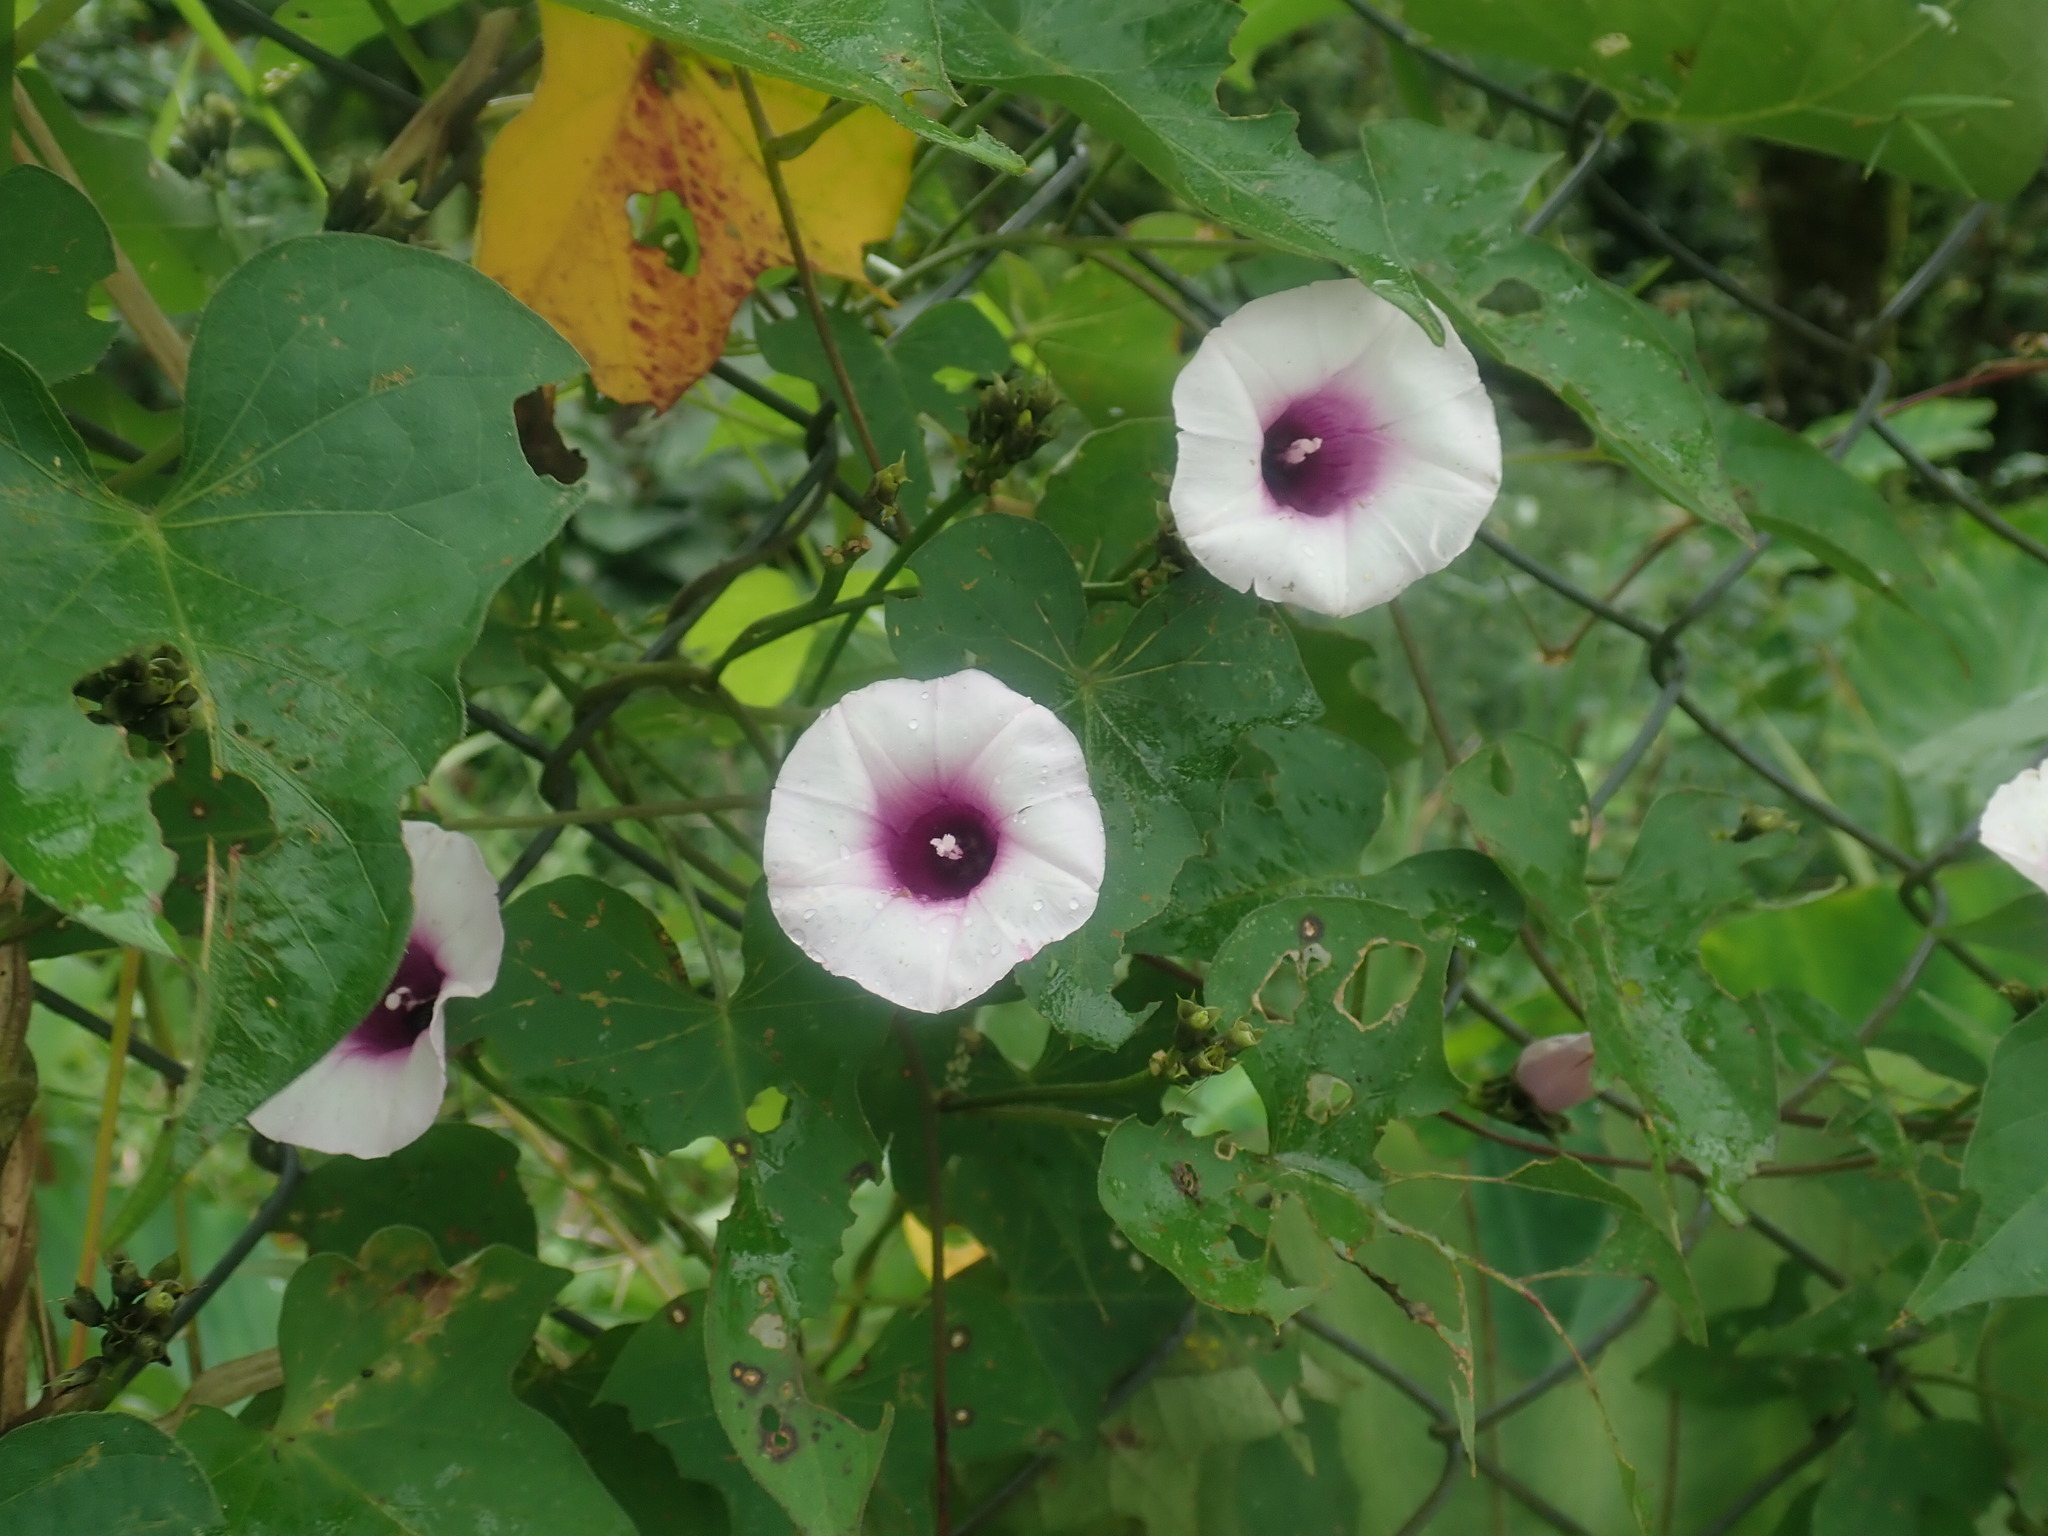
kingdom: Plantae
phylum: Tracheophyta
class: Magnoliopsida
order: Solanales
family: Convolvulaceae
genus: Ipomoea
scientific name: Ipomoea batatas
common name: Sweet-potato
